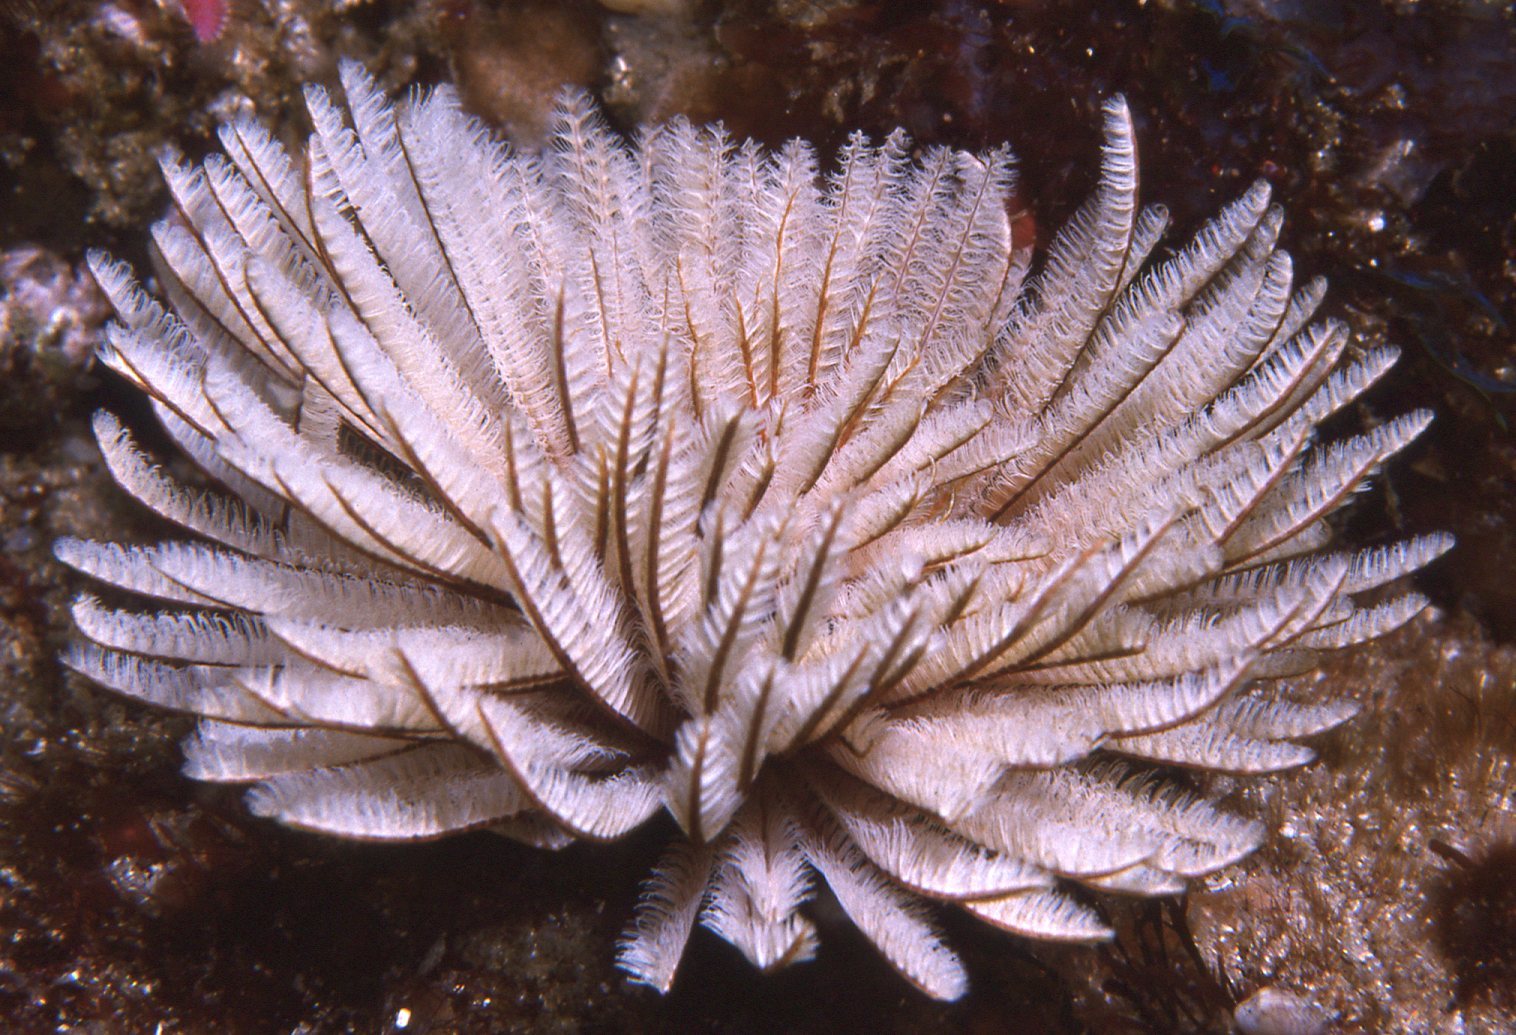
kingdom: Animalia
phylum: Annelida
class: Polychaeta
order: Sabellida
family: Sabellidae
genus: Sabellastarte
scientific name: Sabellastarte australiensis
